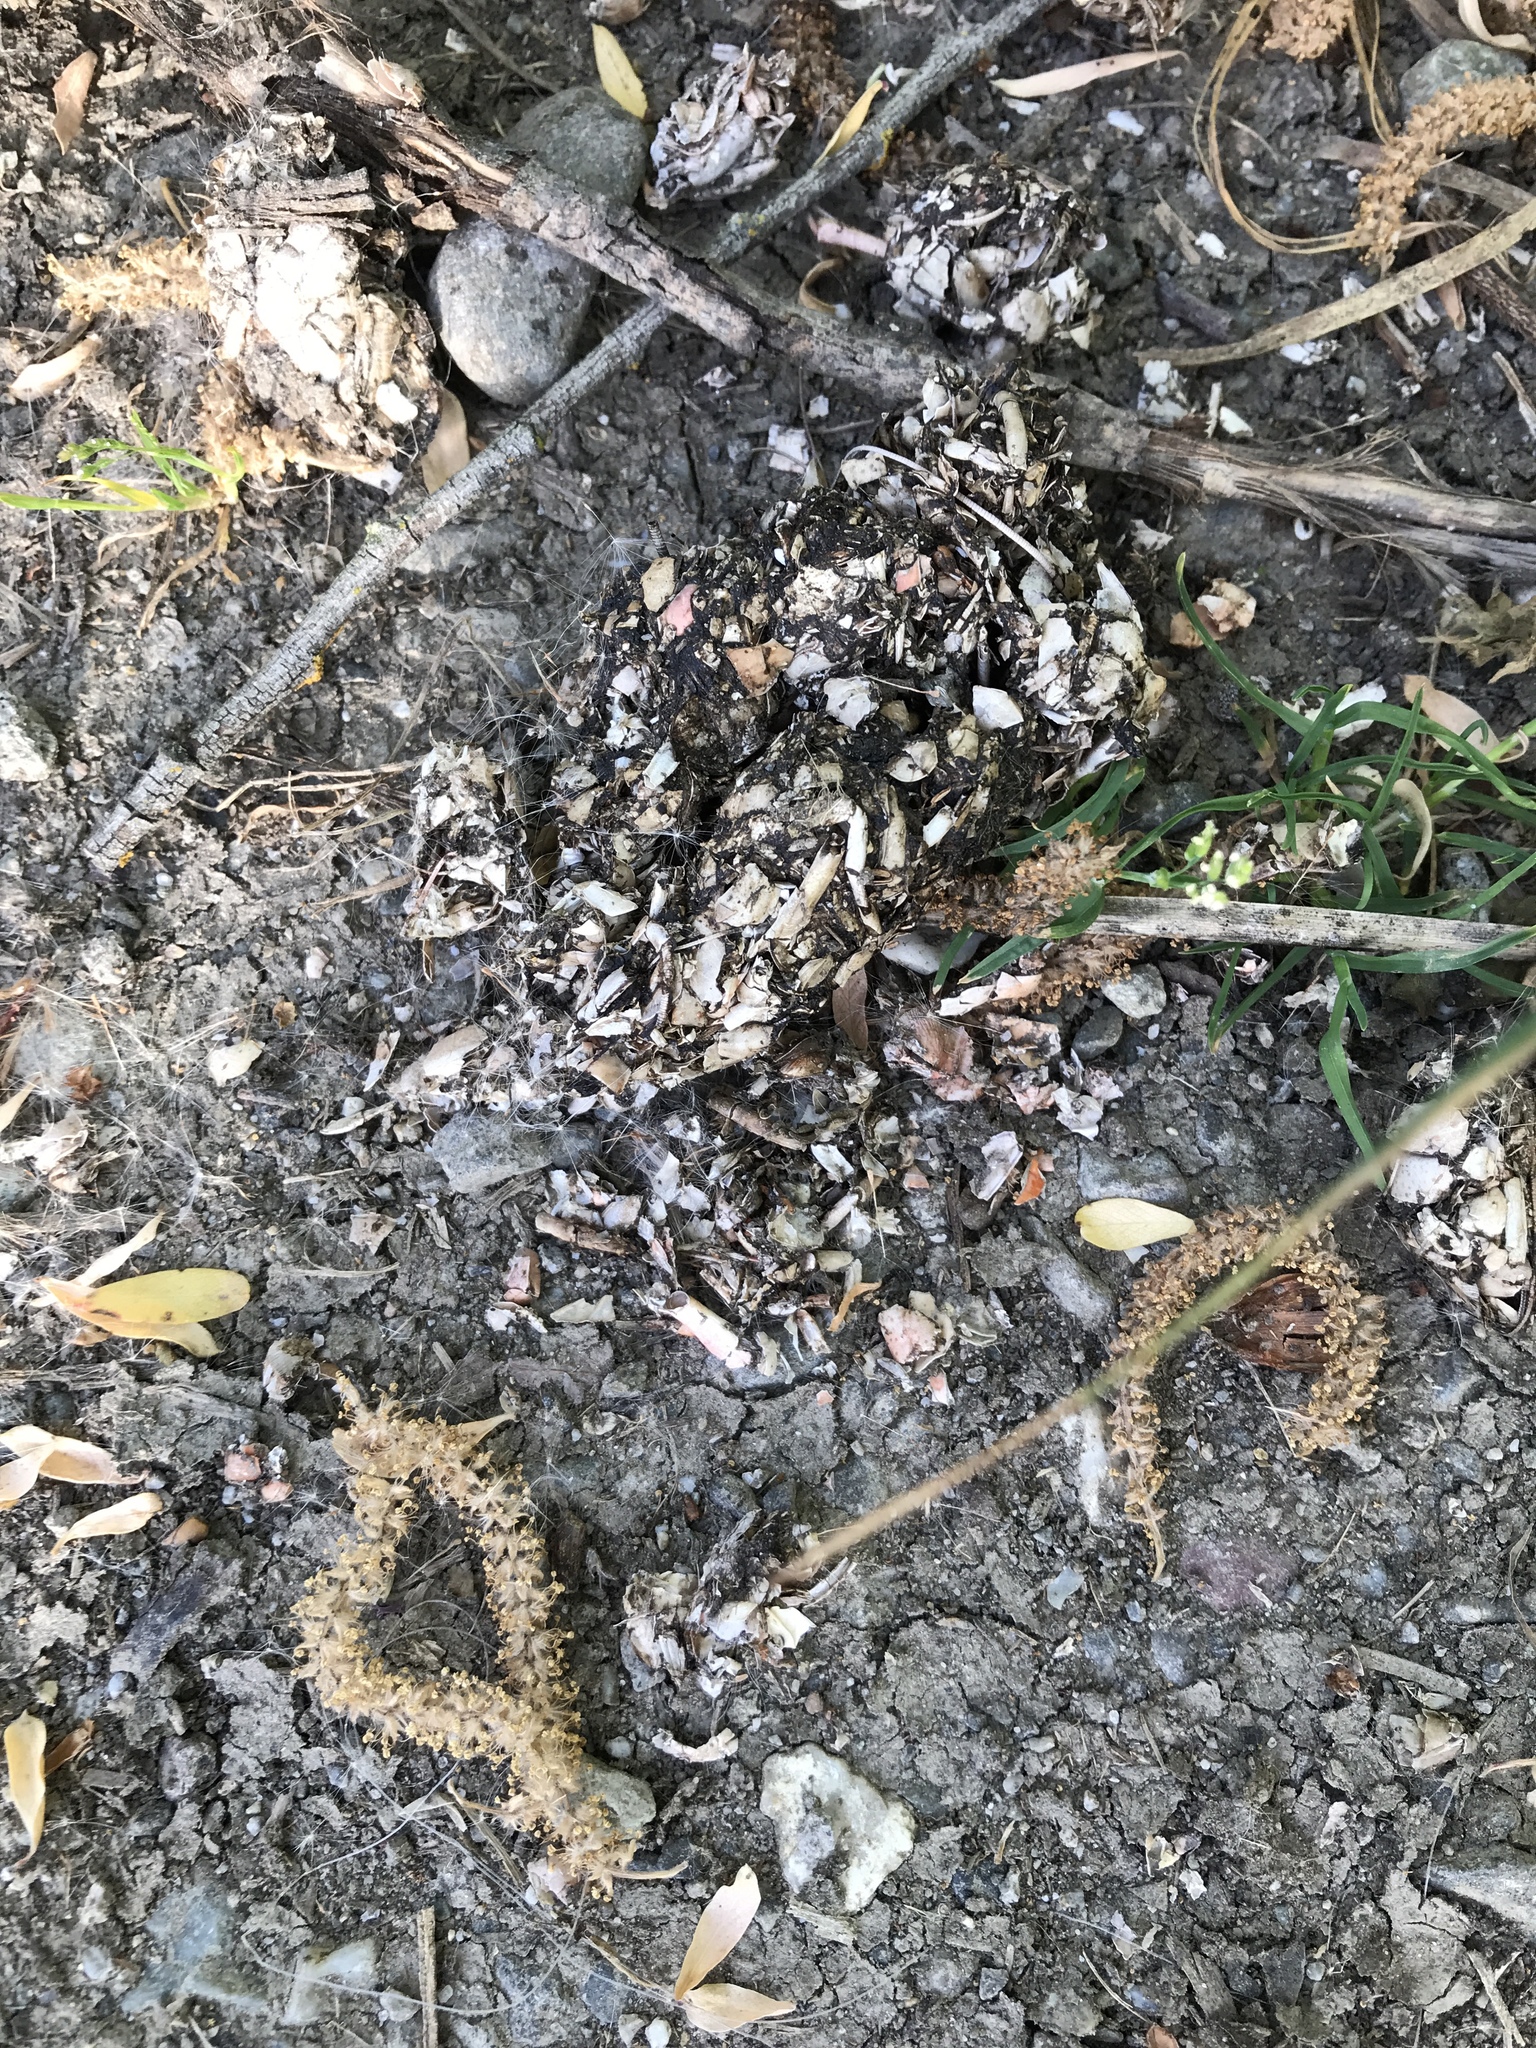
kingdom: Animalia
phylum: Chordata
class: Mammalia
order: Carnivora
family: Mustelidae
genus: Lontra
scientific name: Lontra canadensis
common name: North american river otter
